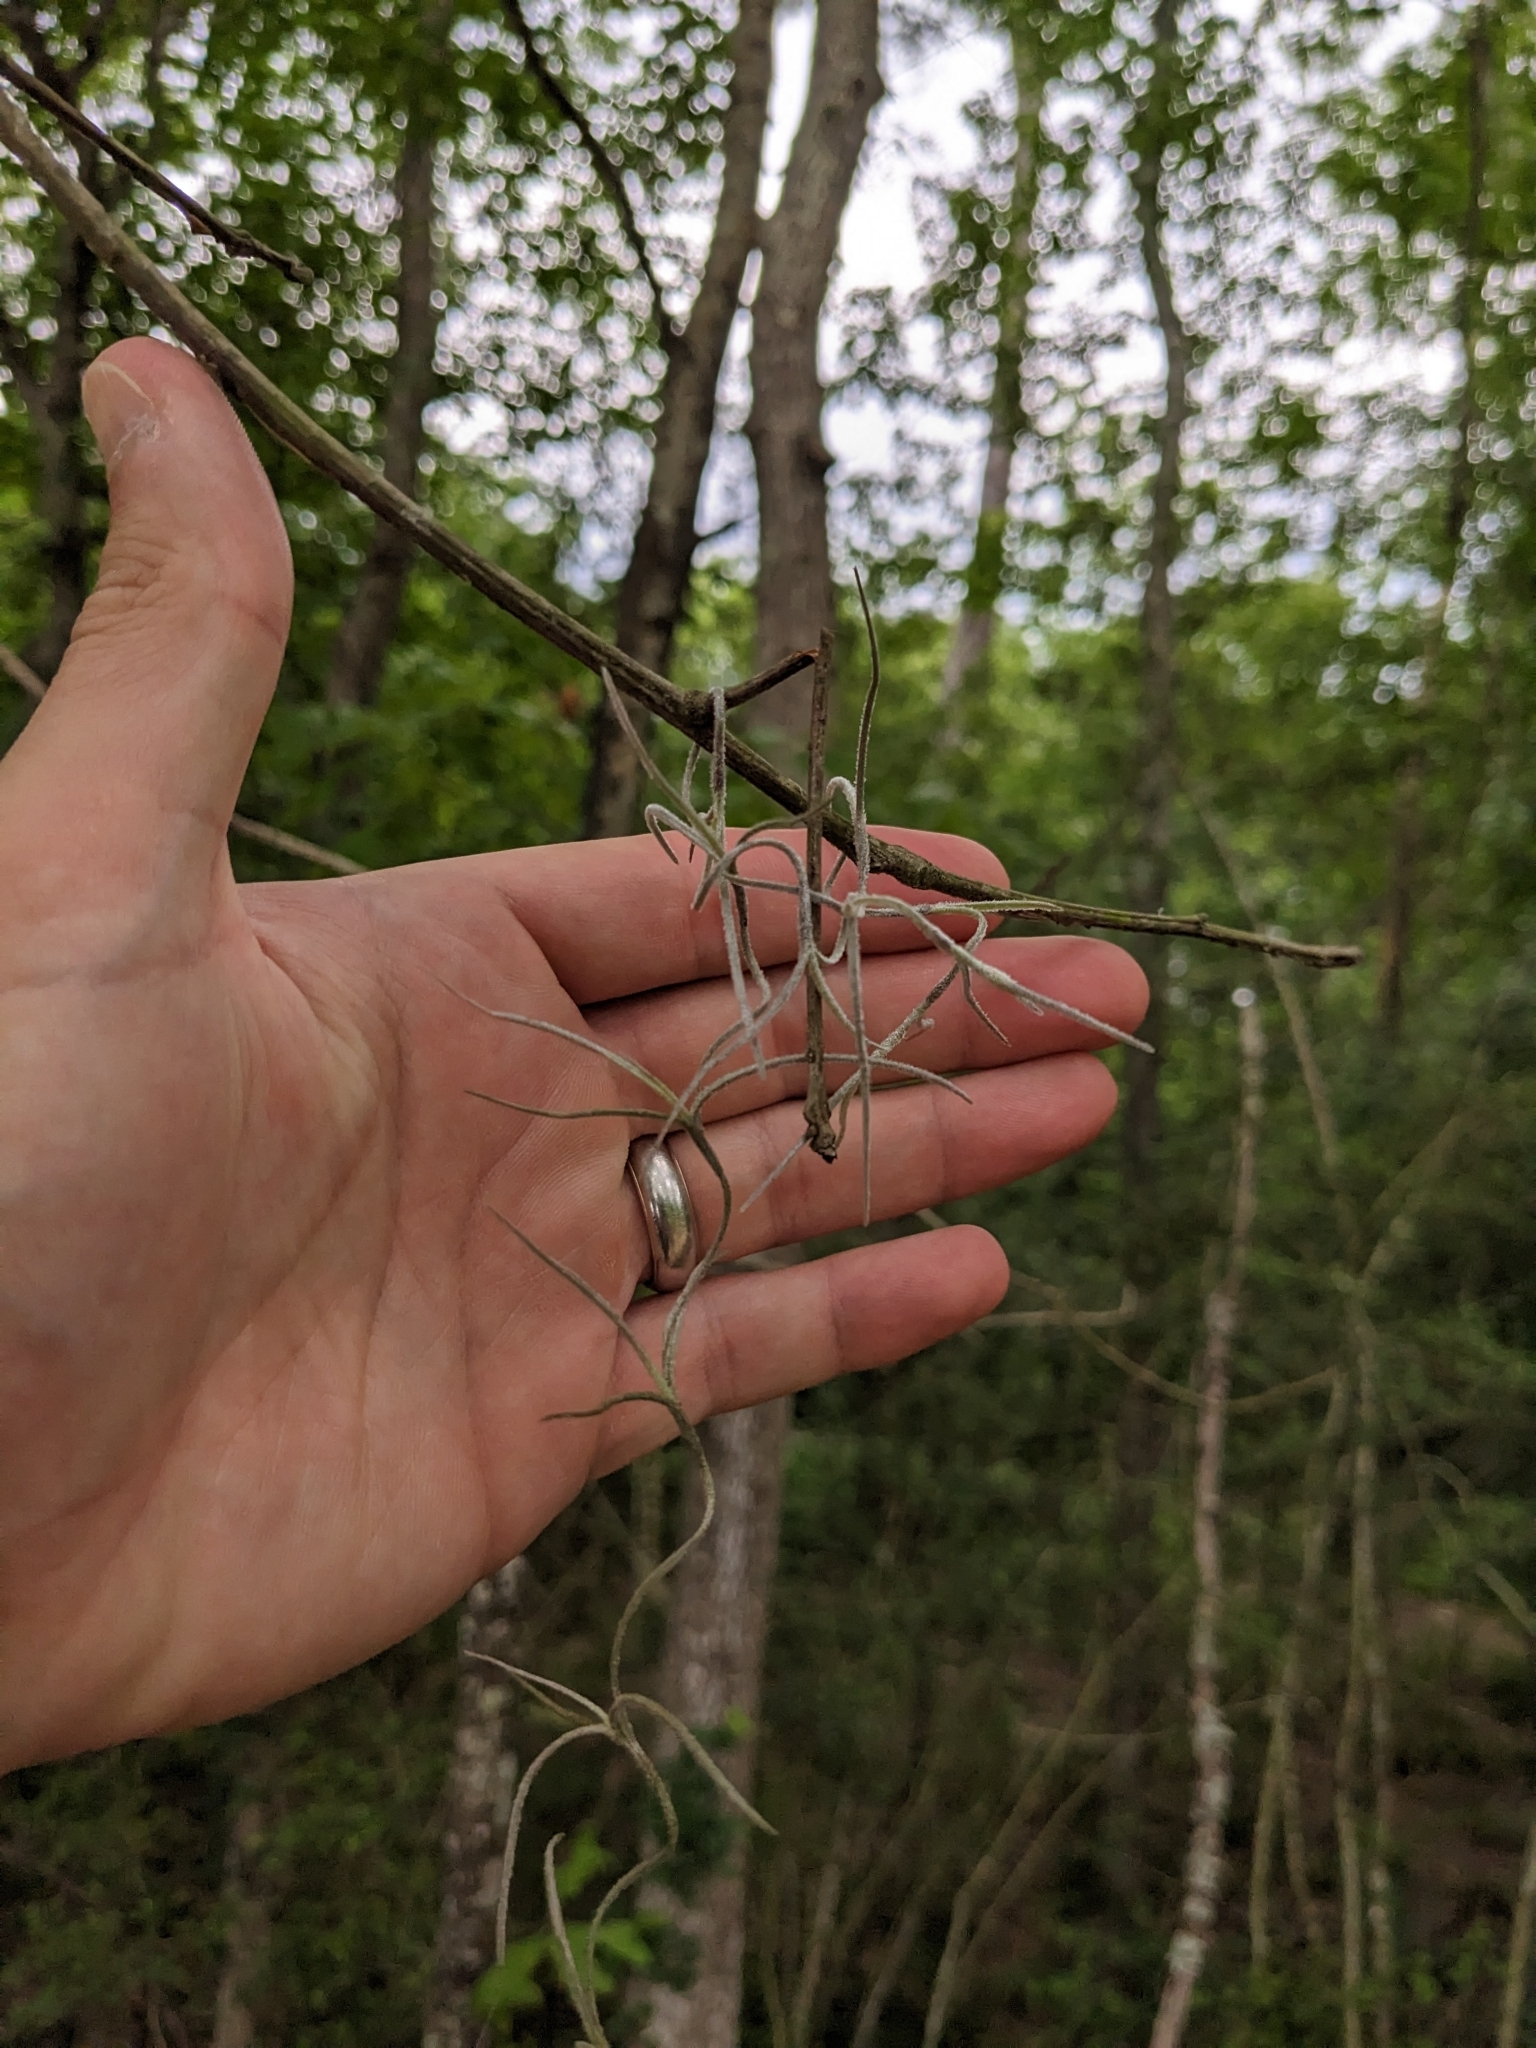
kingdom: Plantae
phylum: Tracheophyta
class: Liliopsida
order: Poales
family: Bromeliaceae
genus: Tillandsia
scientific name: Tillandsia usneoides
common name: Spanish moss
